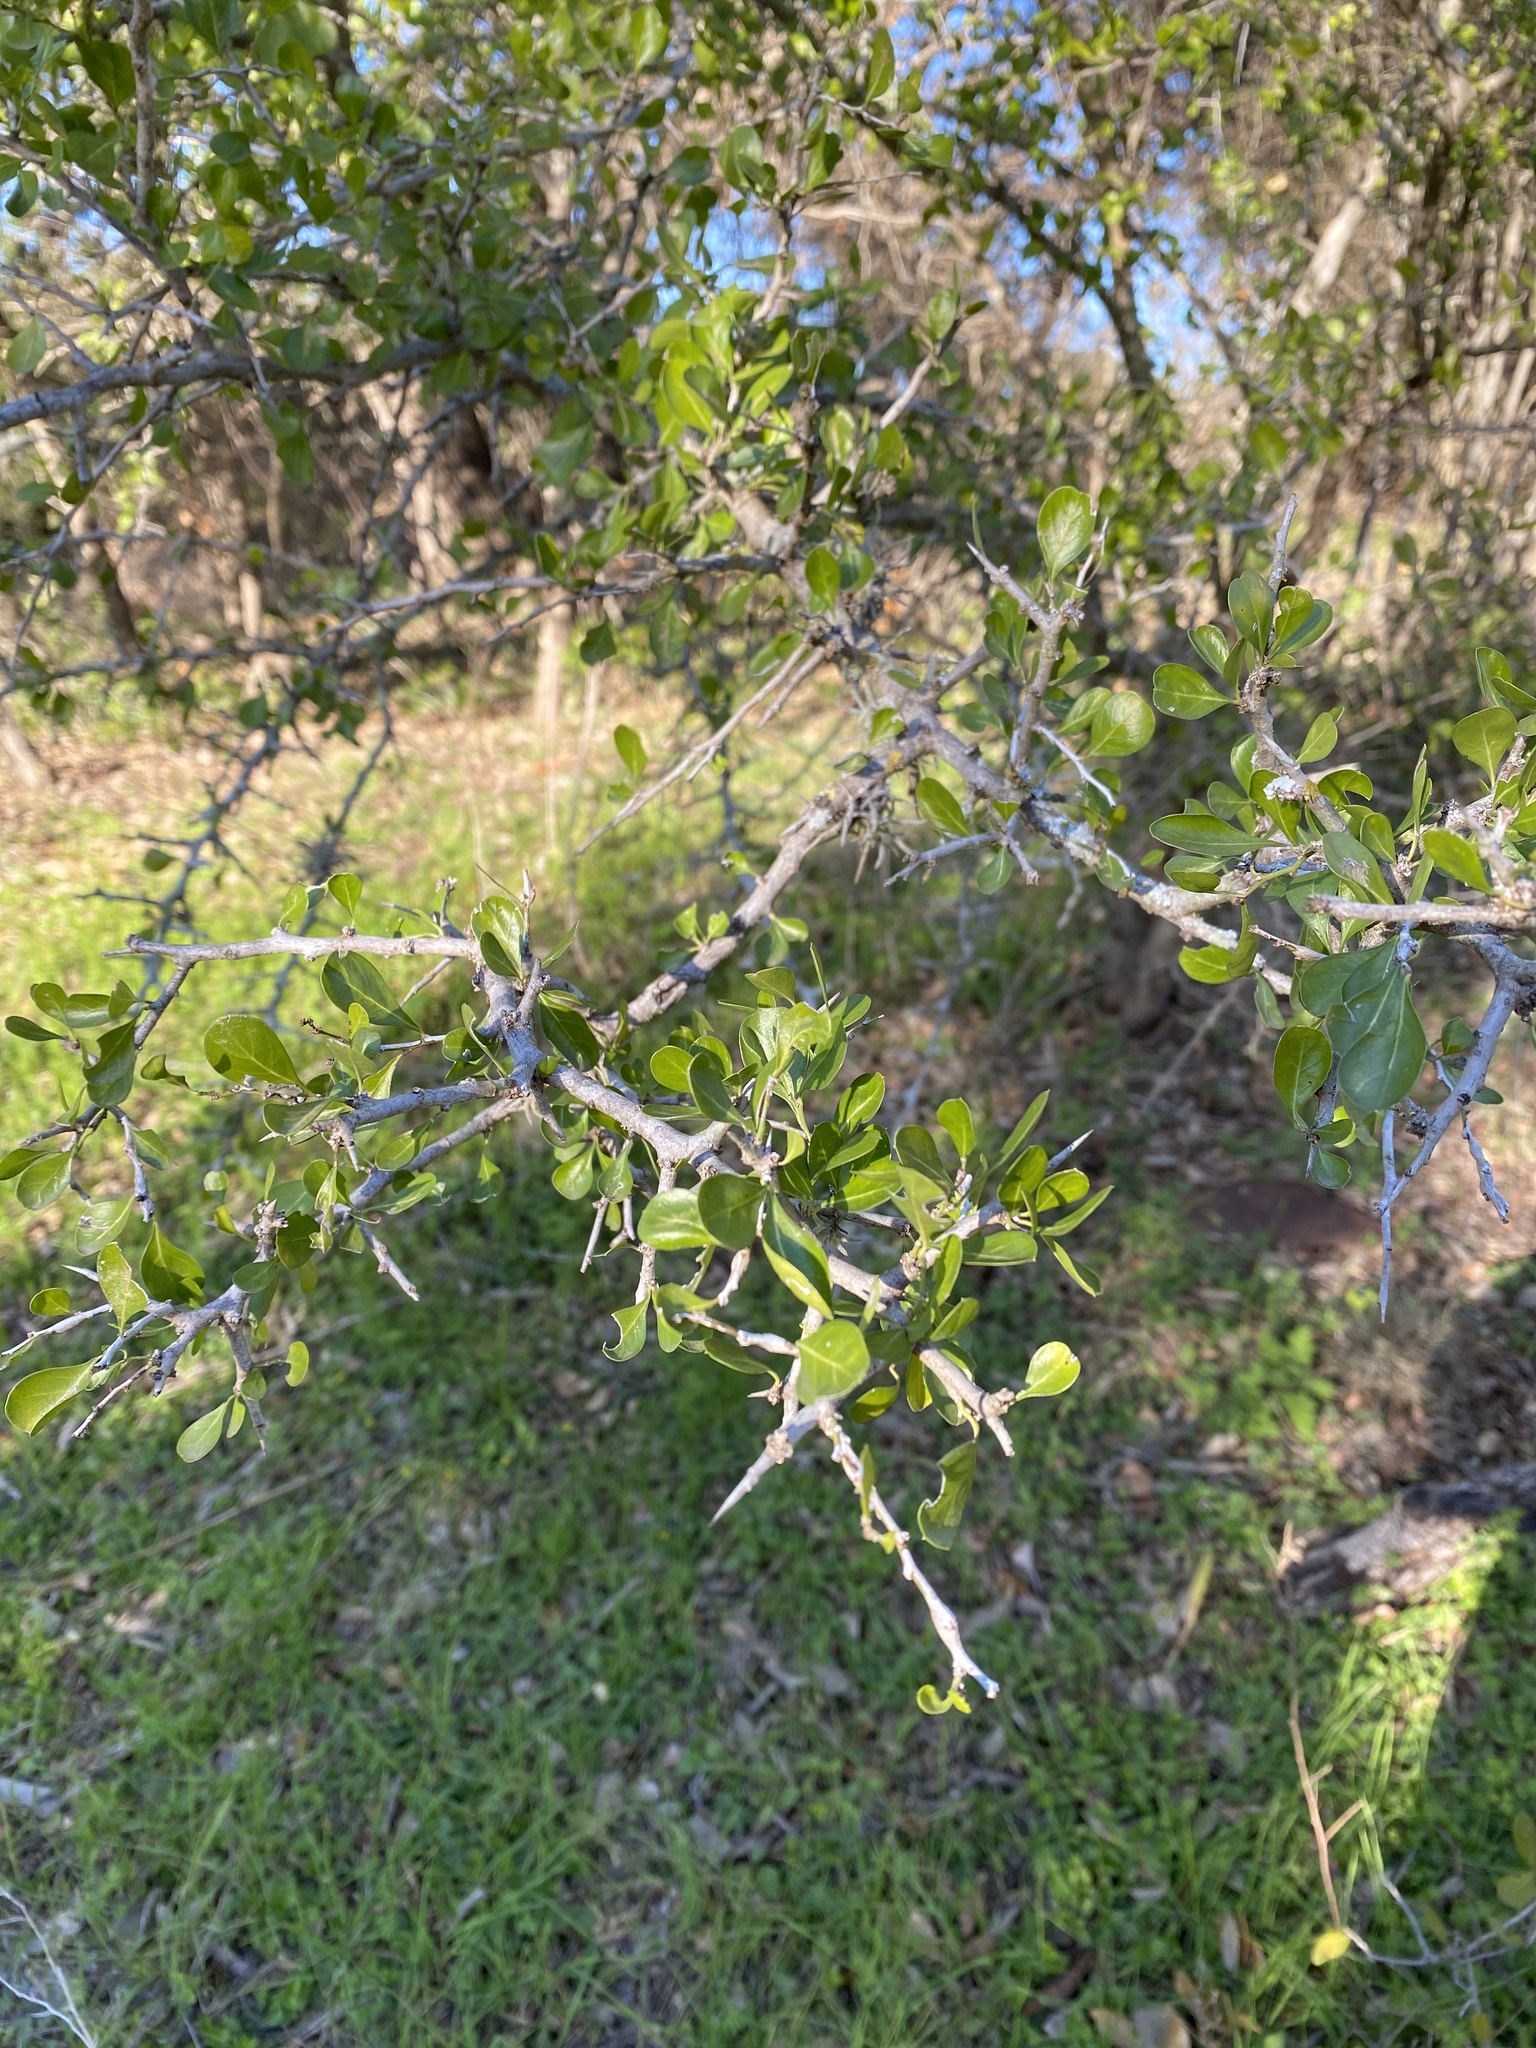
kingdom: Plantae
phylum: Tracheophyta
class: Magnoliopsida
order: Rosales
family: Rhamnaceae
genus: Condalia
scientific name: Condalia hookeri
